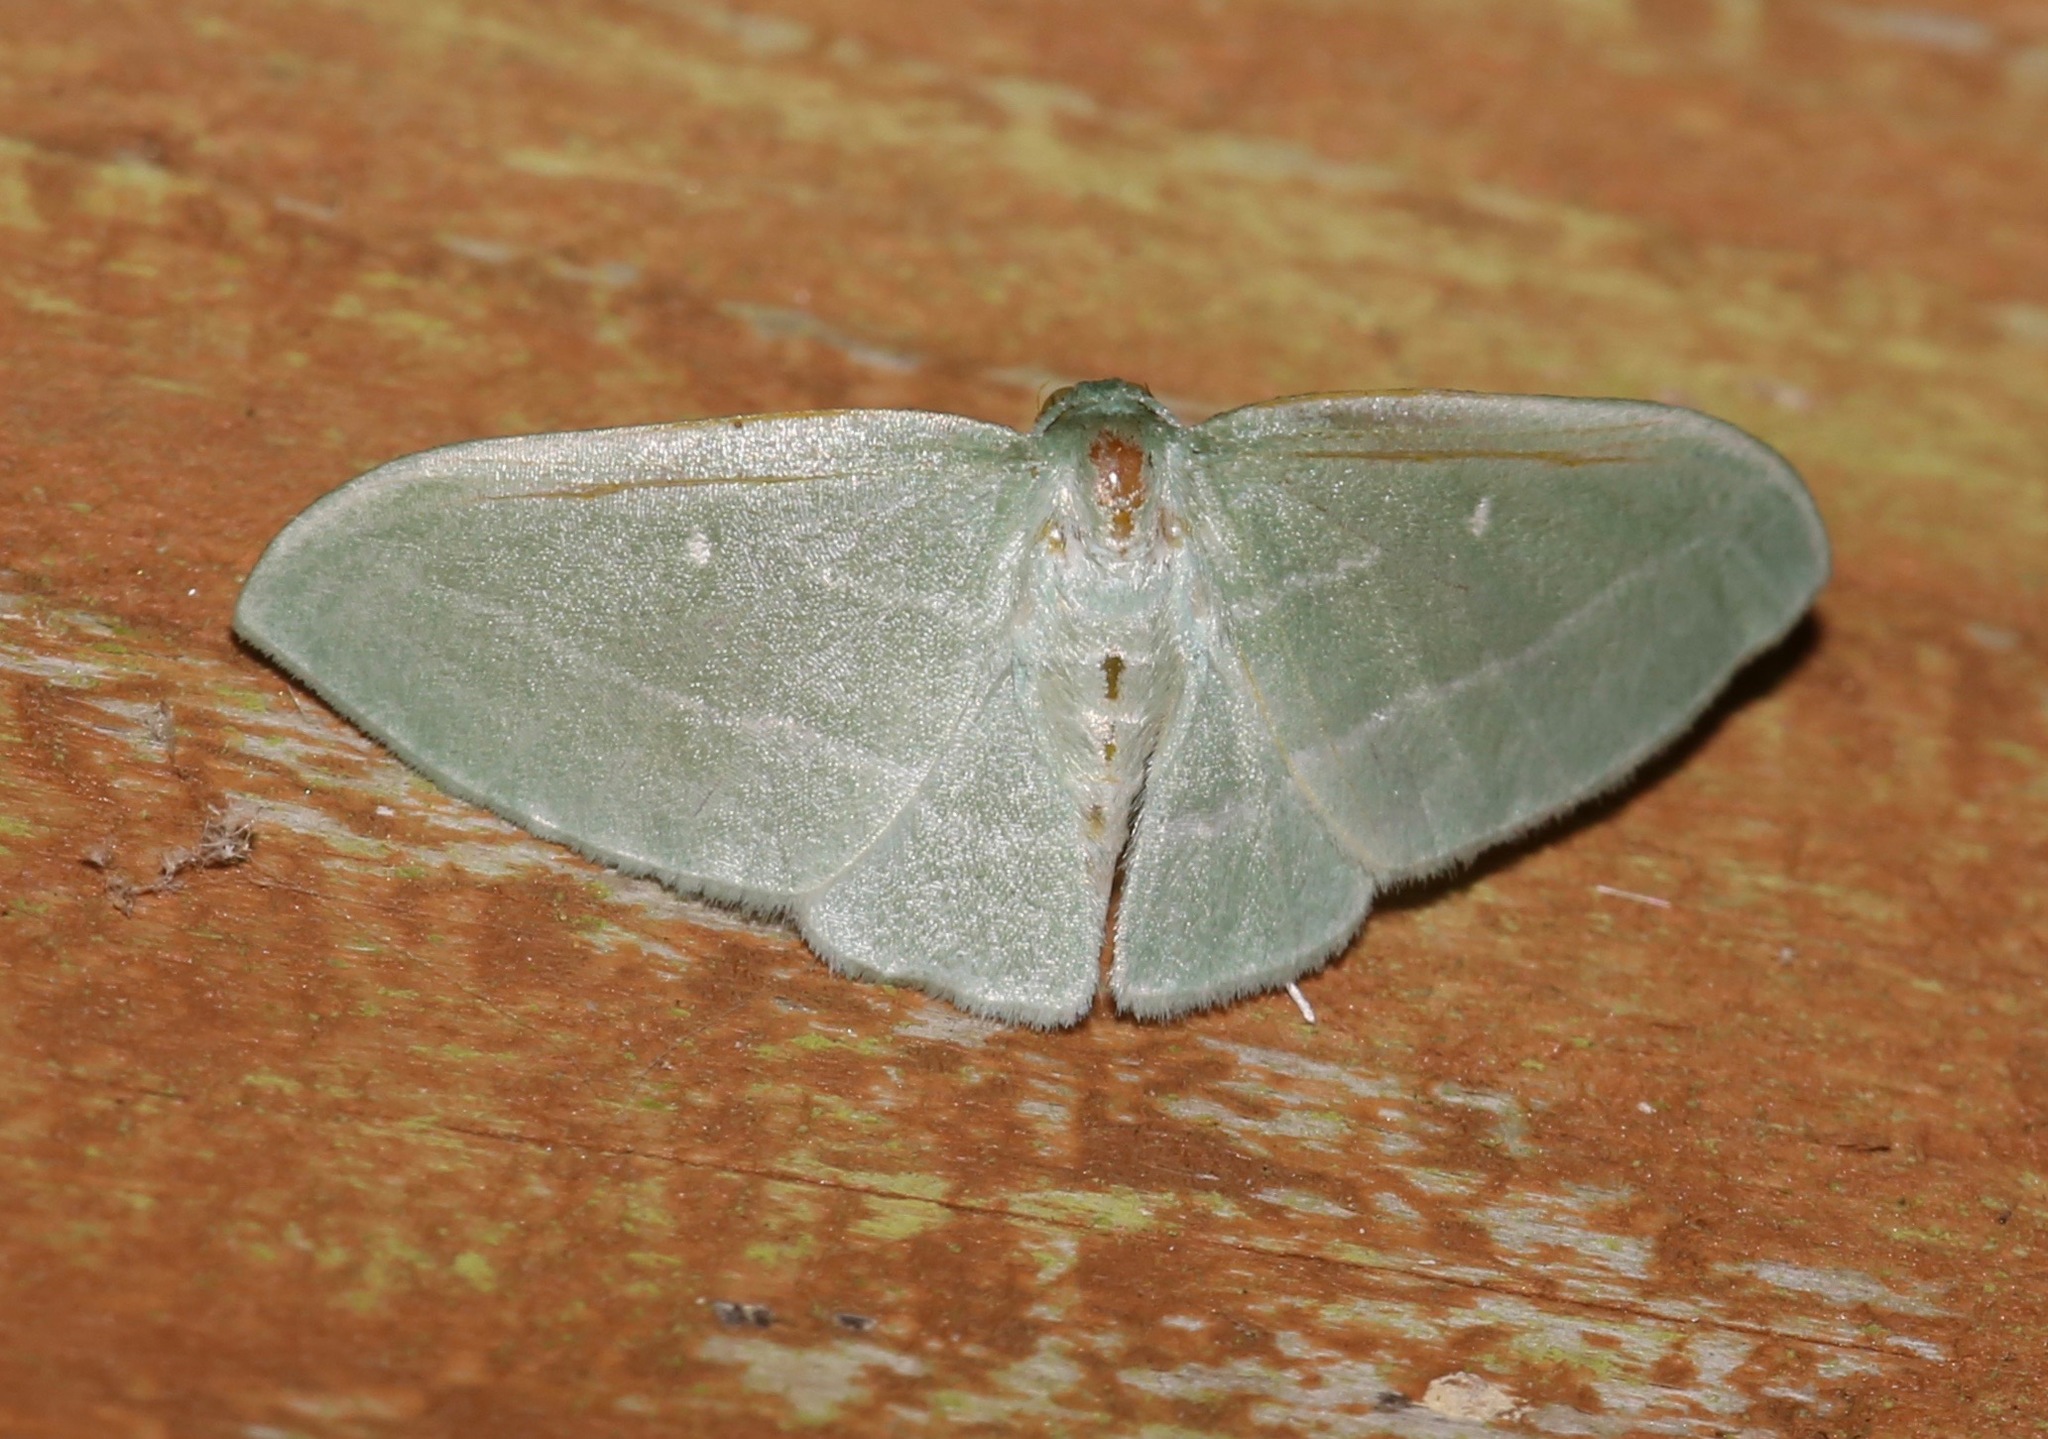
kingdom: Animalia
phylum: Arthropoda
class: Insecta
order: Lepidoptera
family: Geometridae
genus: Dyspteris
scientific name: Dyspteris abortivaria
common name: Bad-wing
